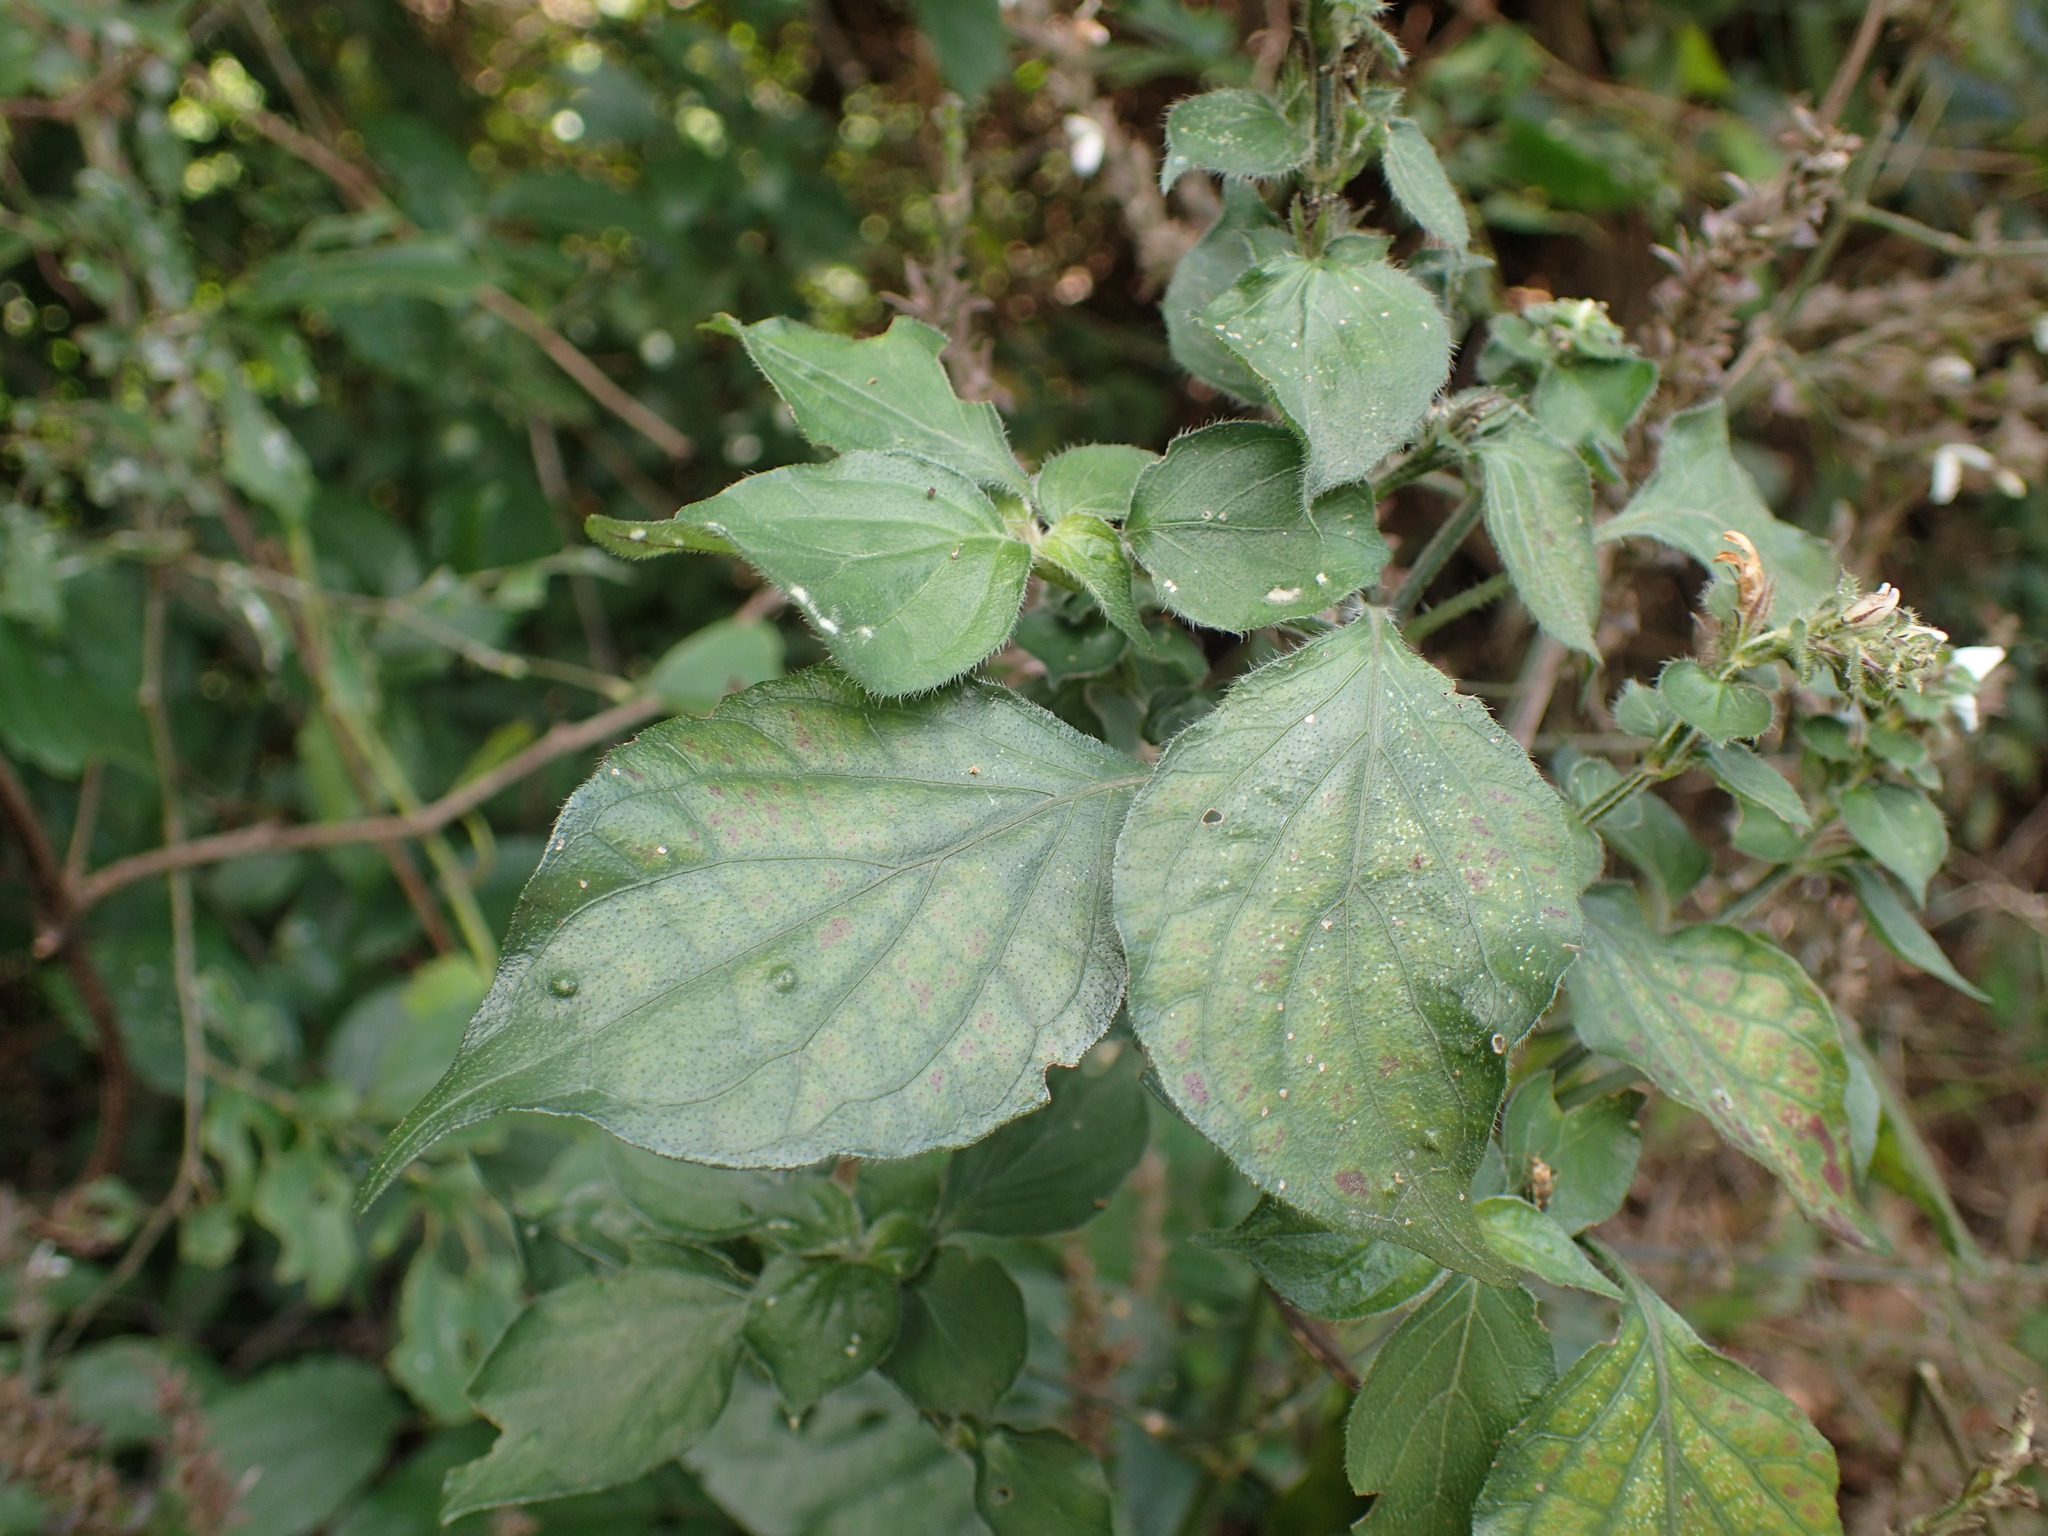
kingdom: Plantae
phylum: Tracheophyta
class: Magnoliopsida
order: Lamiales
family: Acanthaceae
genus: Isoglossa
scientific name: Isoglossa woodii
